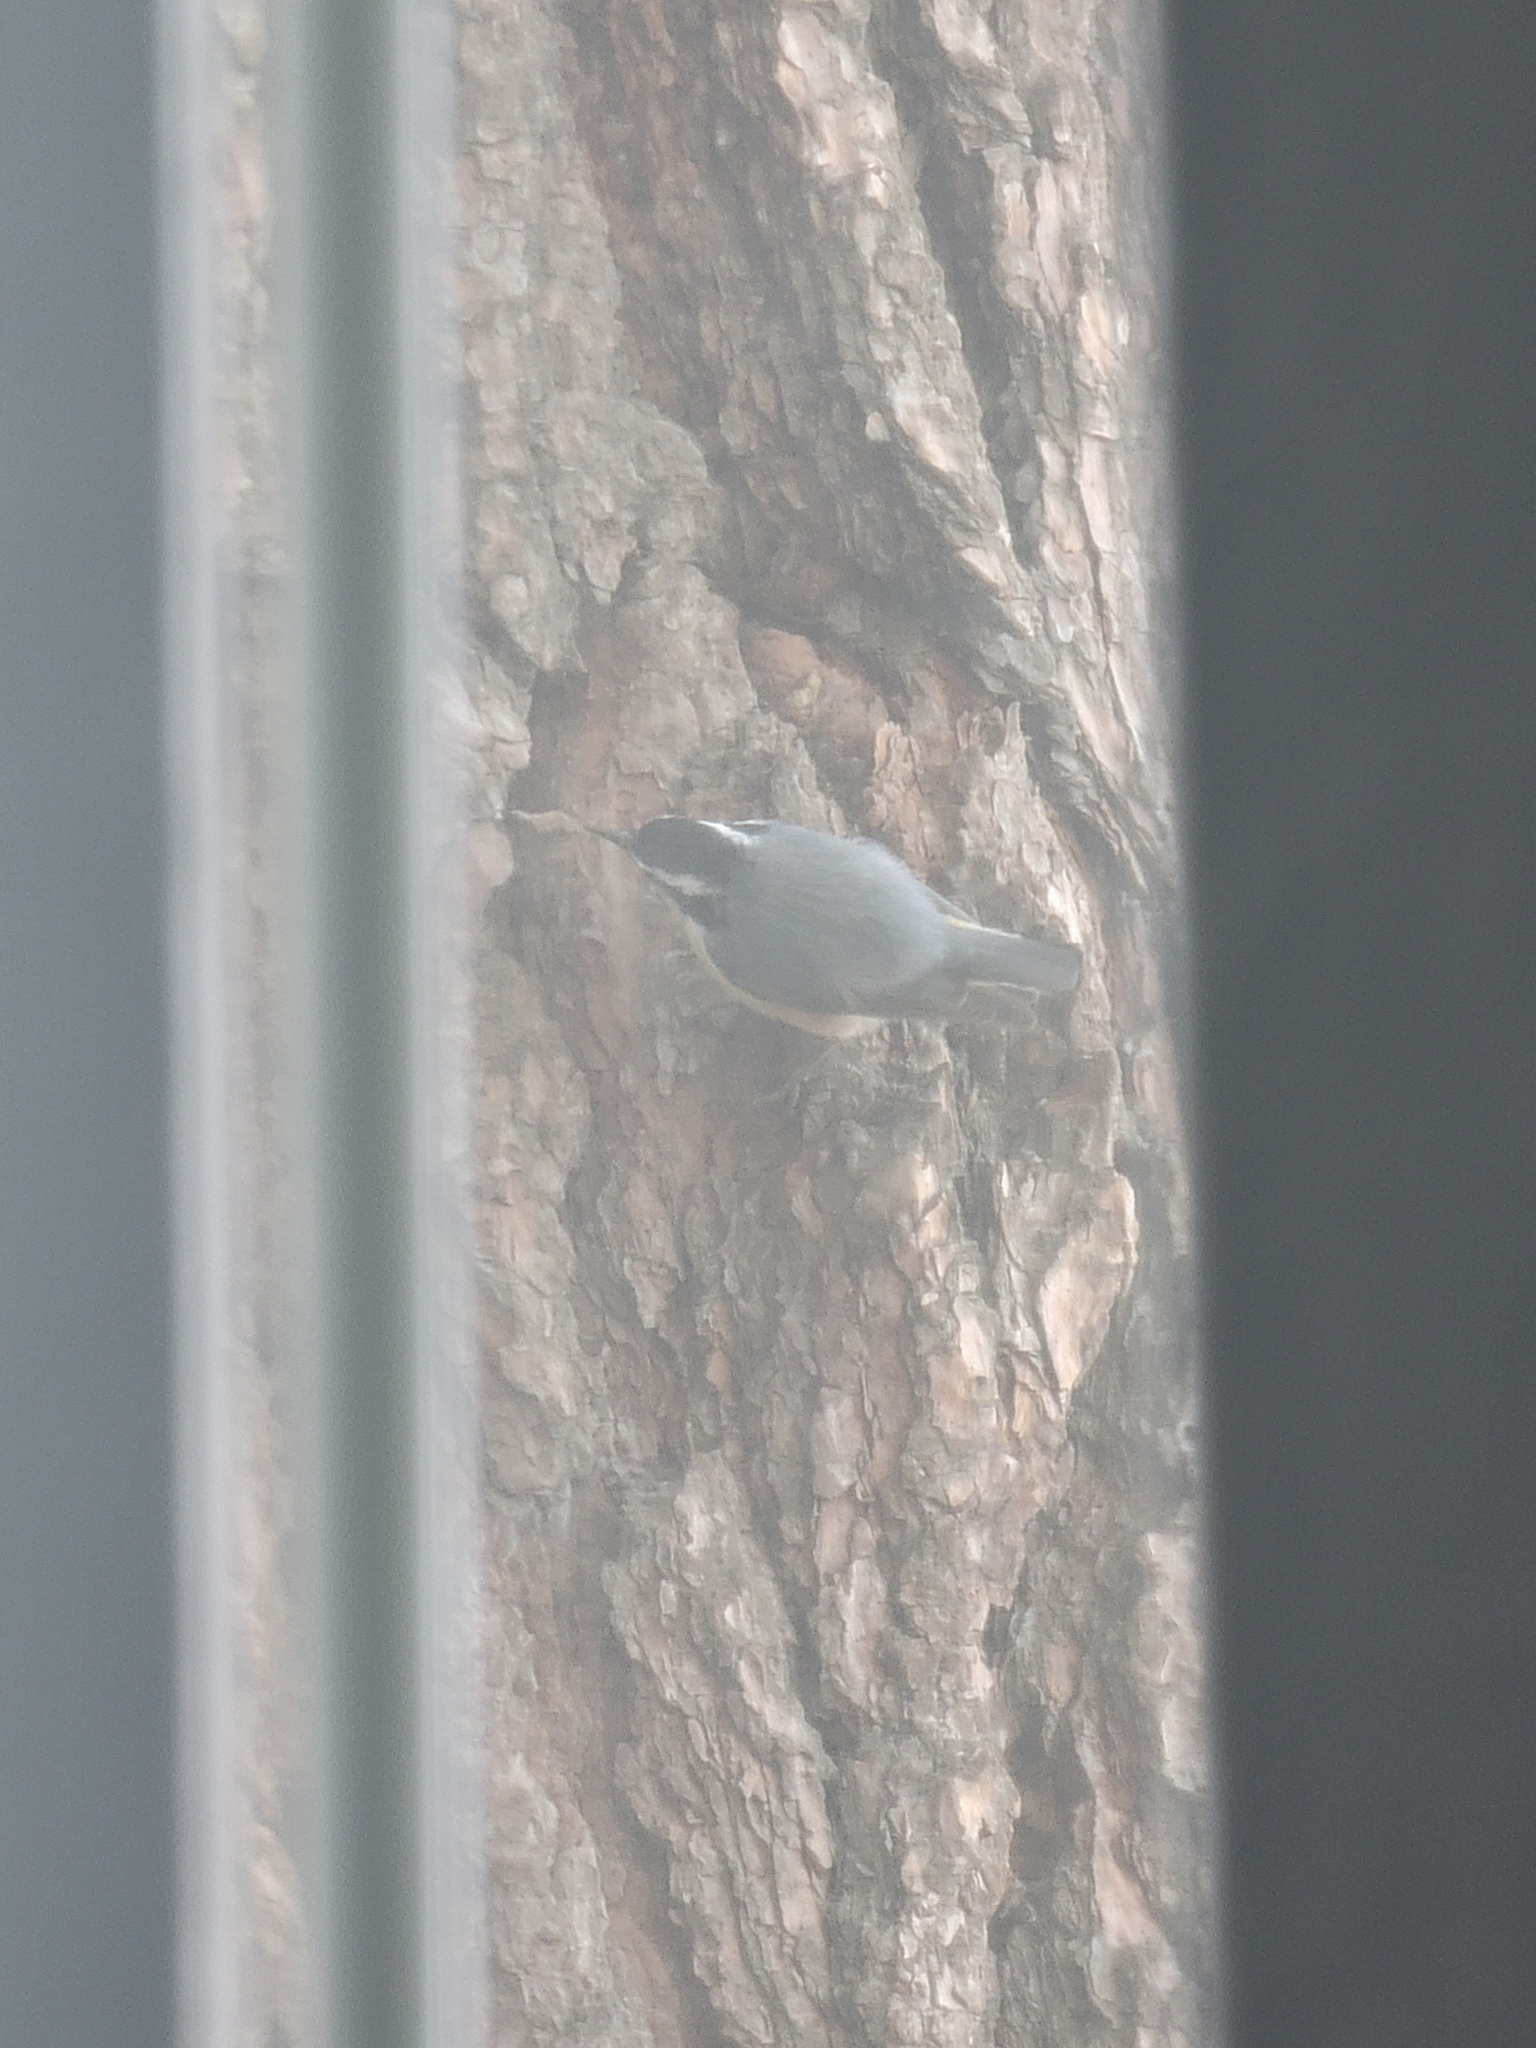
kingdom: Animalia
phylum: Chordata
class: Aves
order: Passeriformes
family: Sittidae
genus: Sitta
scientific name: Sitta canadensis
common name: Red-breasted nuthatch
